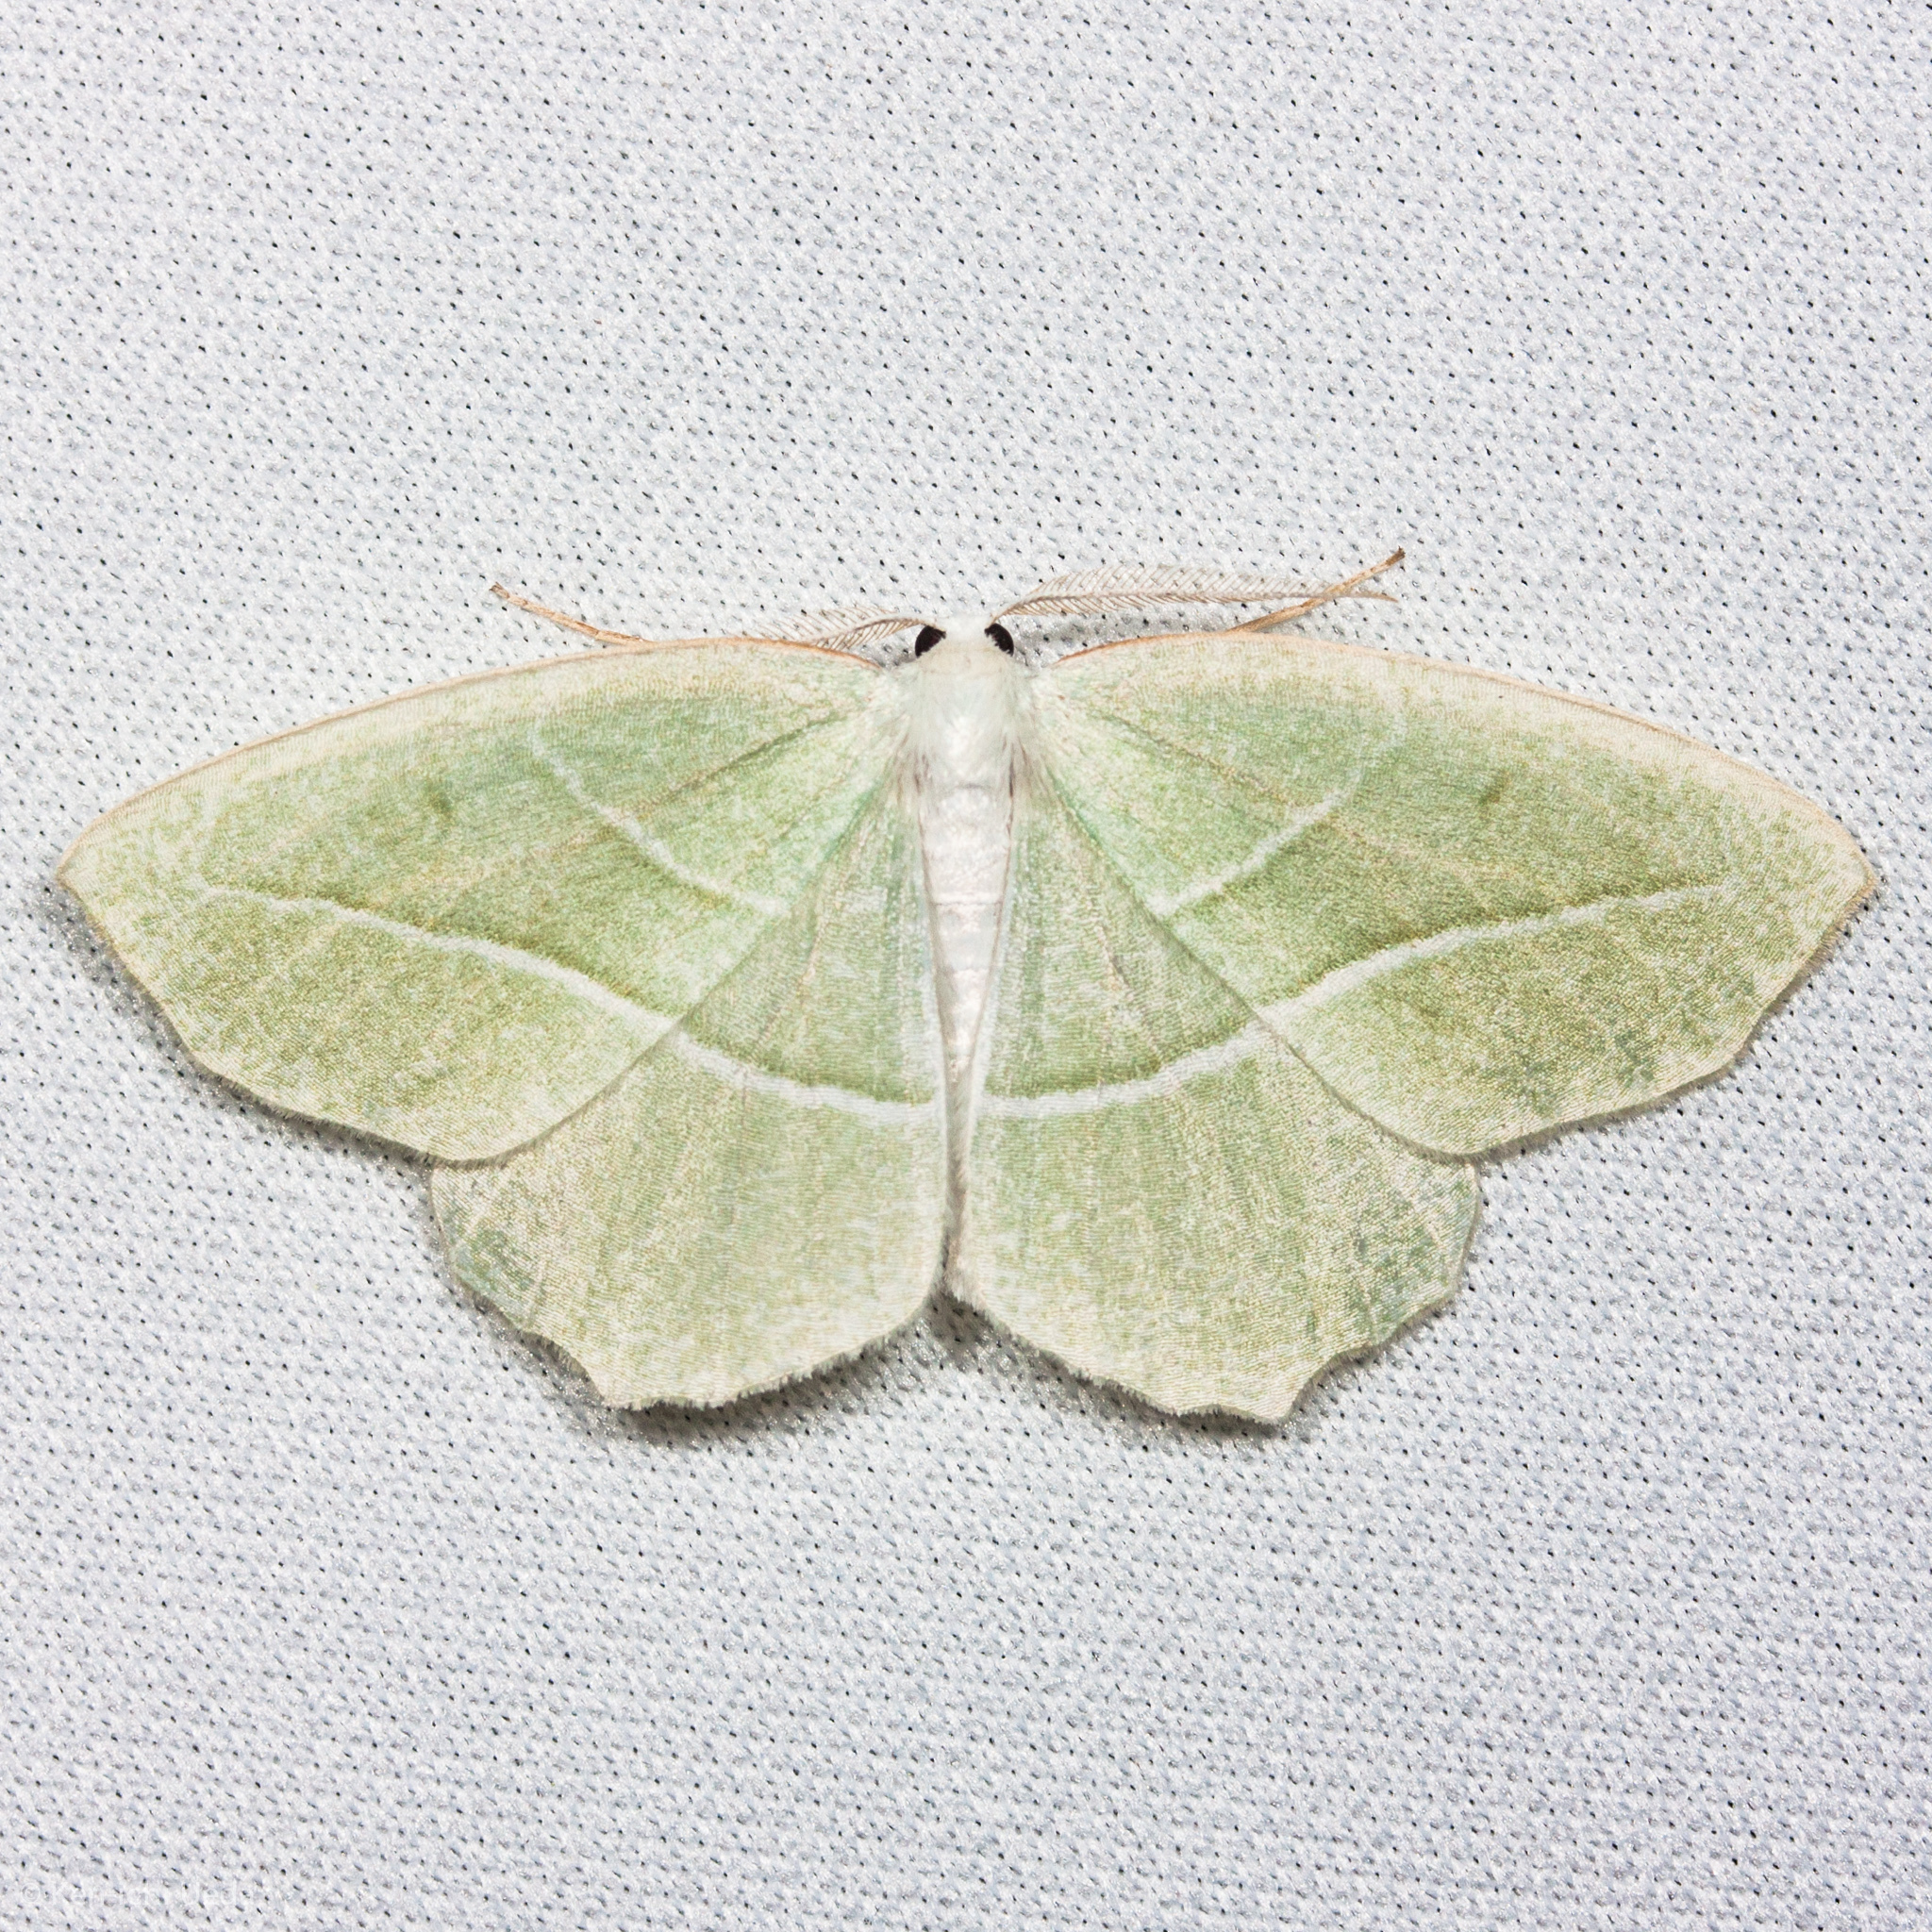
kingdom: Animalia
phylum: Arthropoda
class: Insecta
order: Lepidoptera
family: Geometridae
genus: Campaea
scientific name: Campaea perlata
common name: Fringed looper
